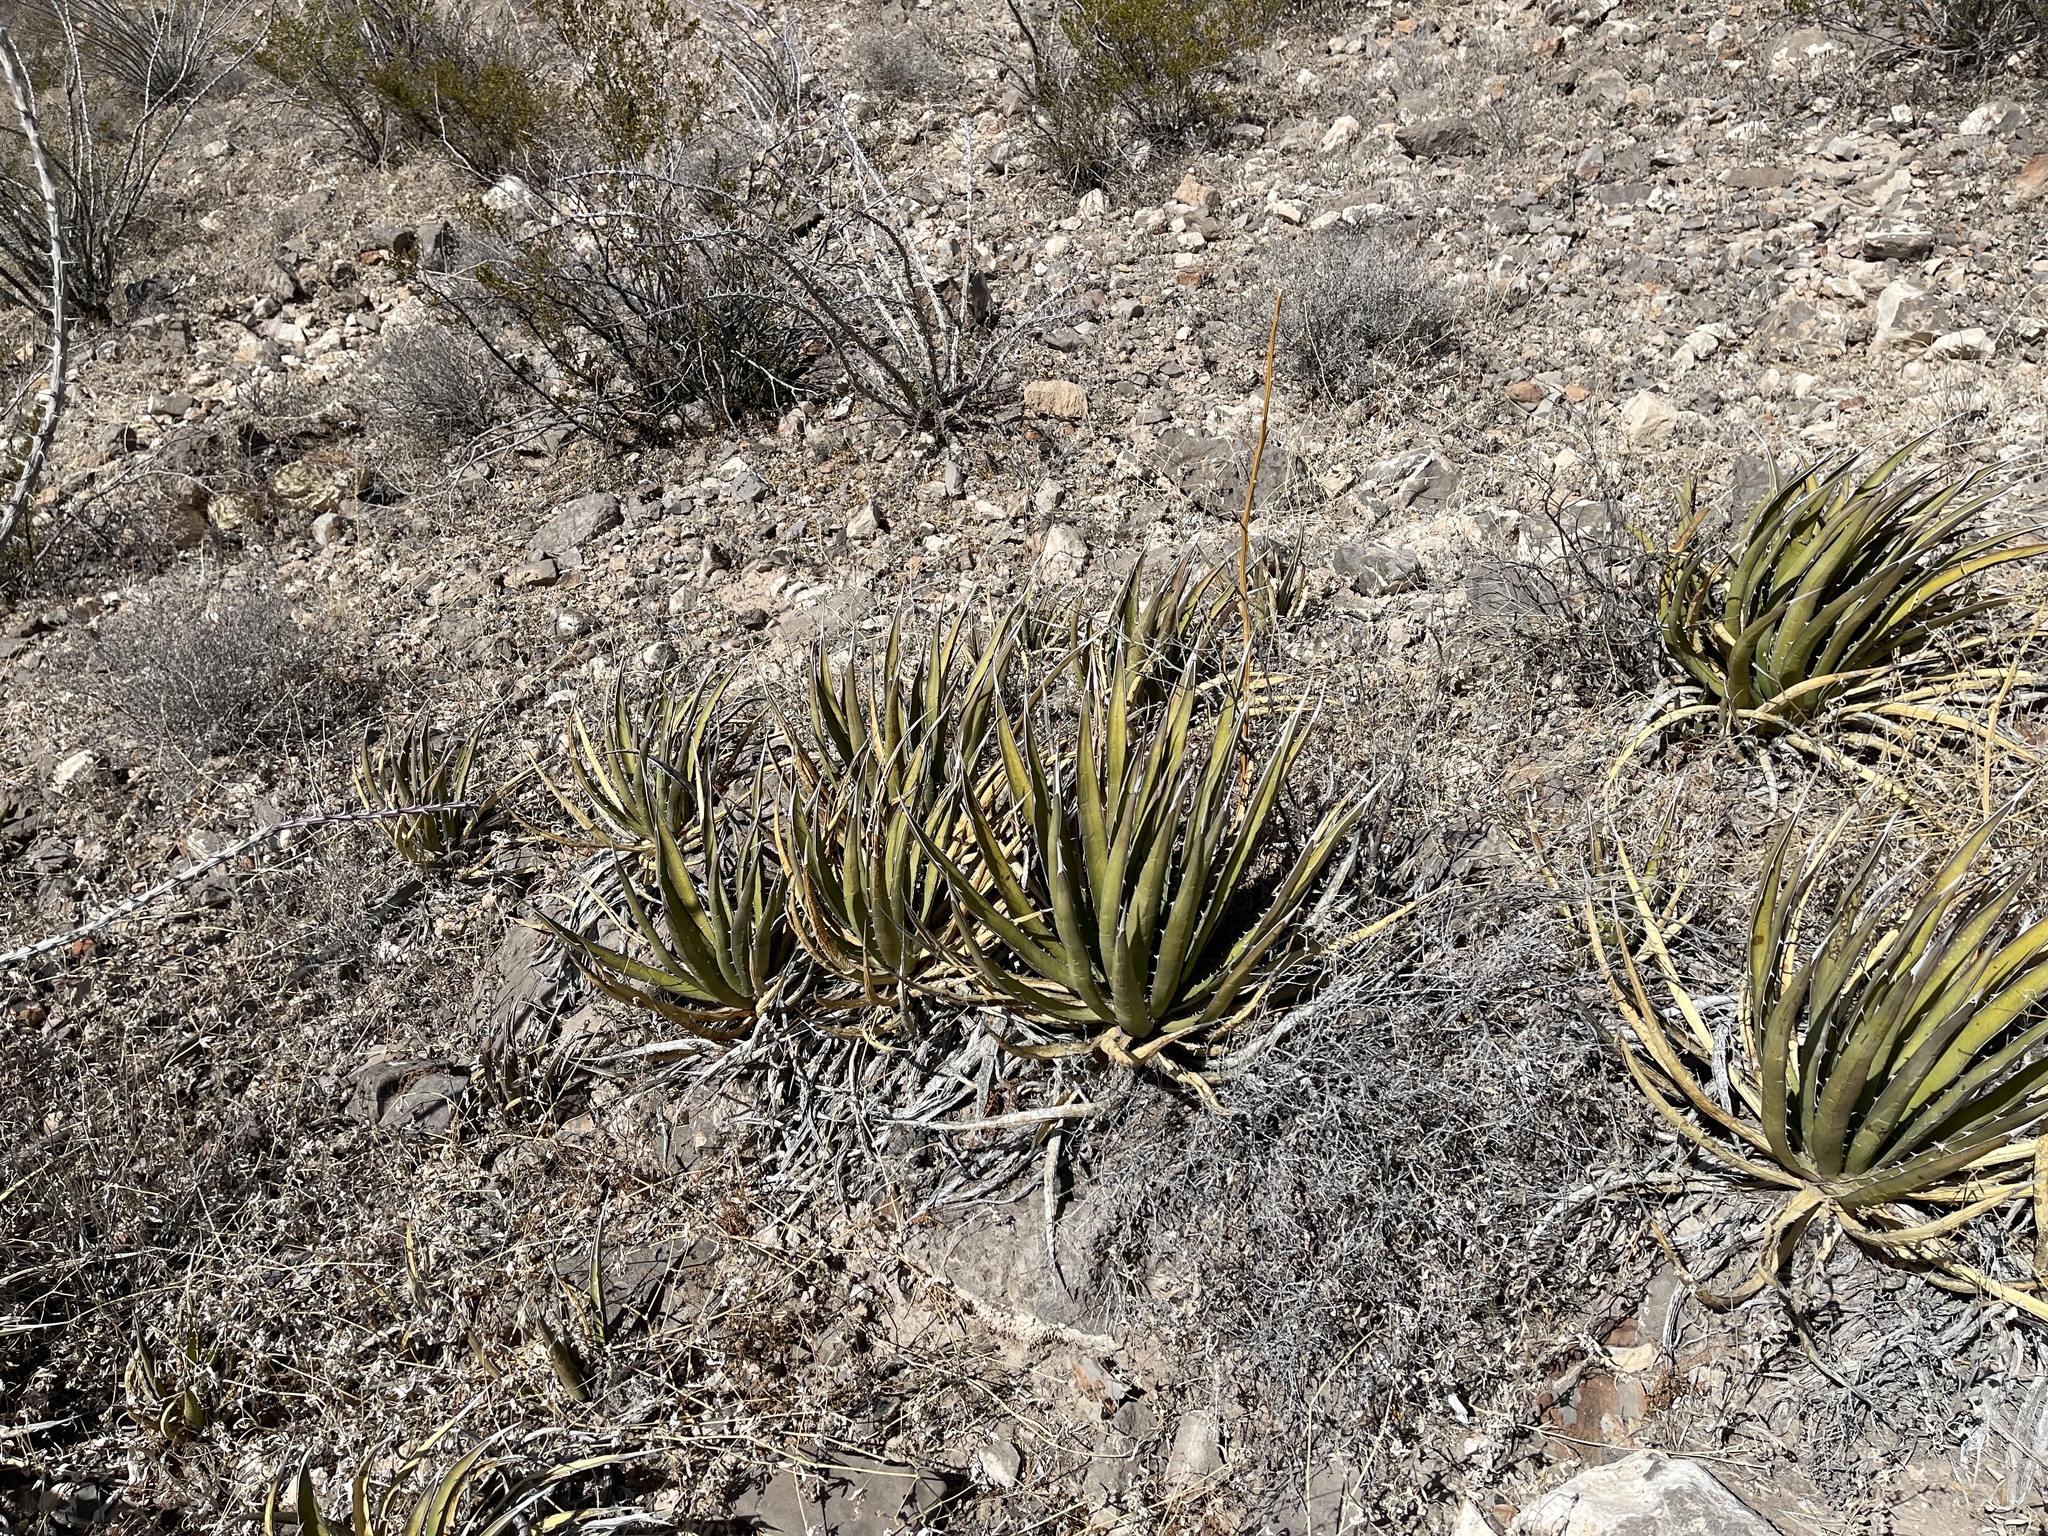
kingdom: Plantae
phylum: Tracheophyta
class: Liliopsida
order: Asparagales
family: Asparagaceae
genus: Agave
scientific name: Agave lechuguilla
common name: Lecheguilla agave
